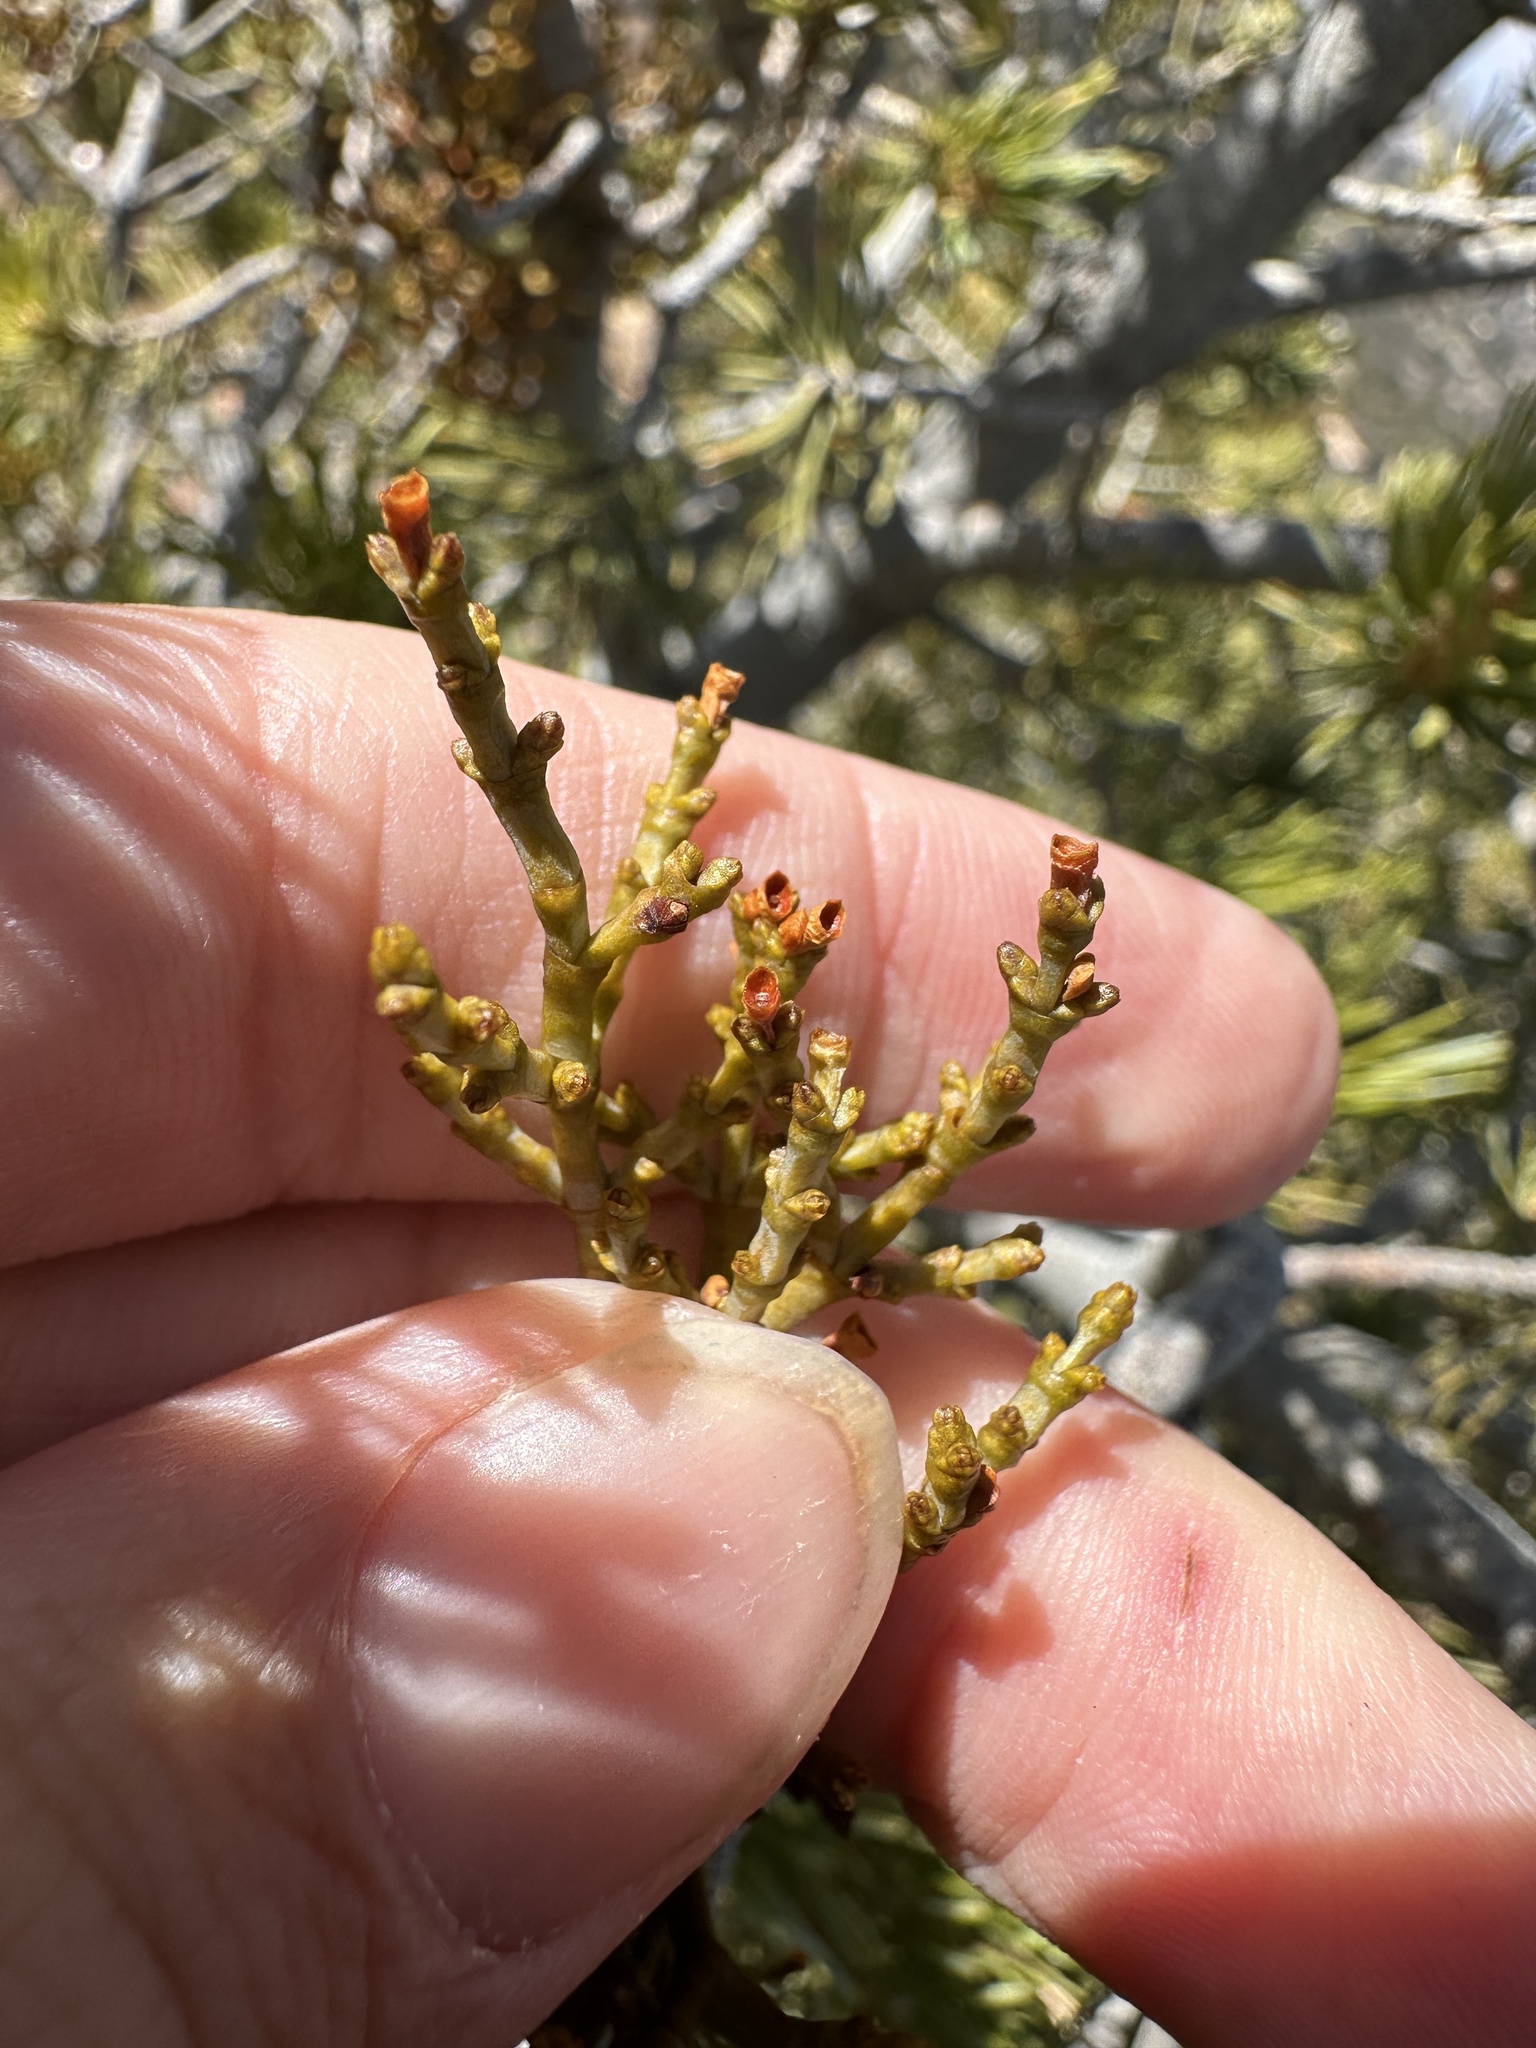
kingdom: Plantae
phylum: Tracheophyta
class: Magnoliopsida
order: Santalales
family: Viscaceae
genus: Arceuthobium
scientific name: Arceuthobium divaricatum
